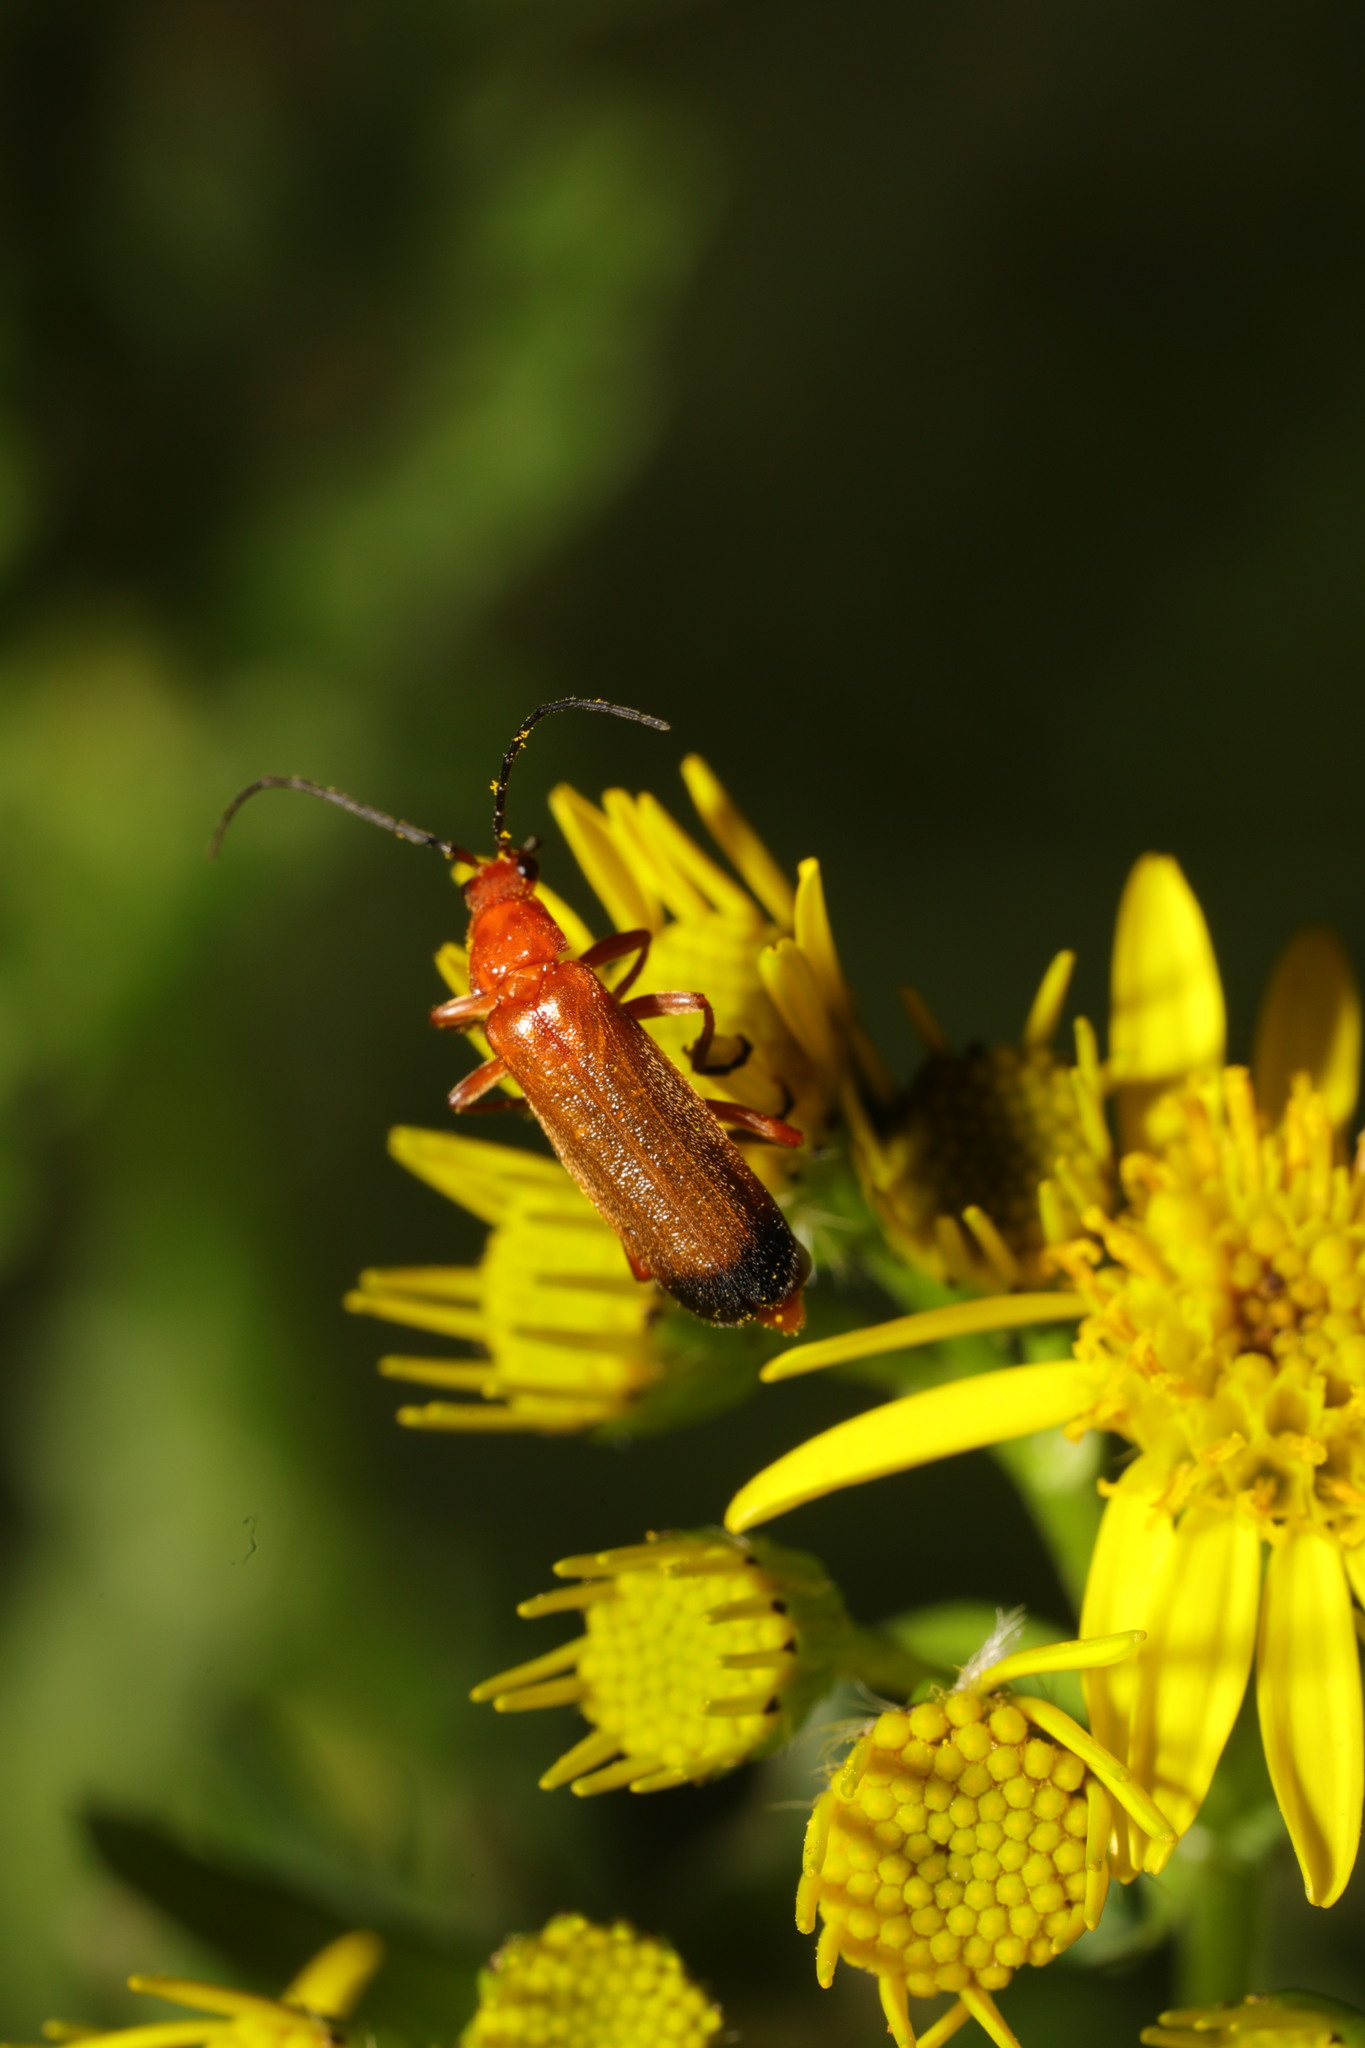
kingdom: Animalia
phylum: Arthropoda
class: Insecta
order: Coleoptera
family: Cantharidae
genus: Rhagonycha
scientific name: Rhagonycha fulva
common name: Common red soldier beetle
